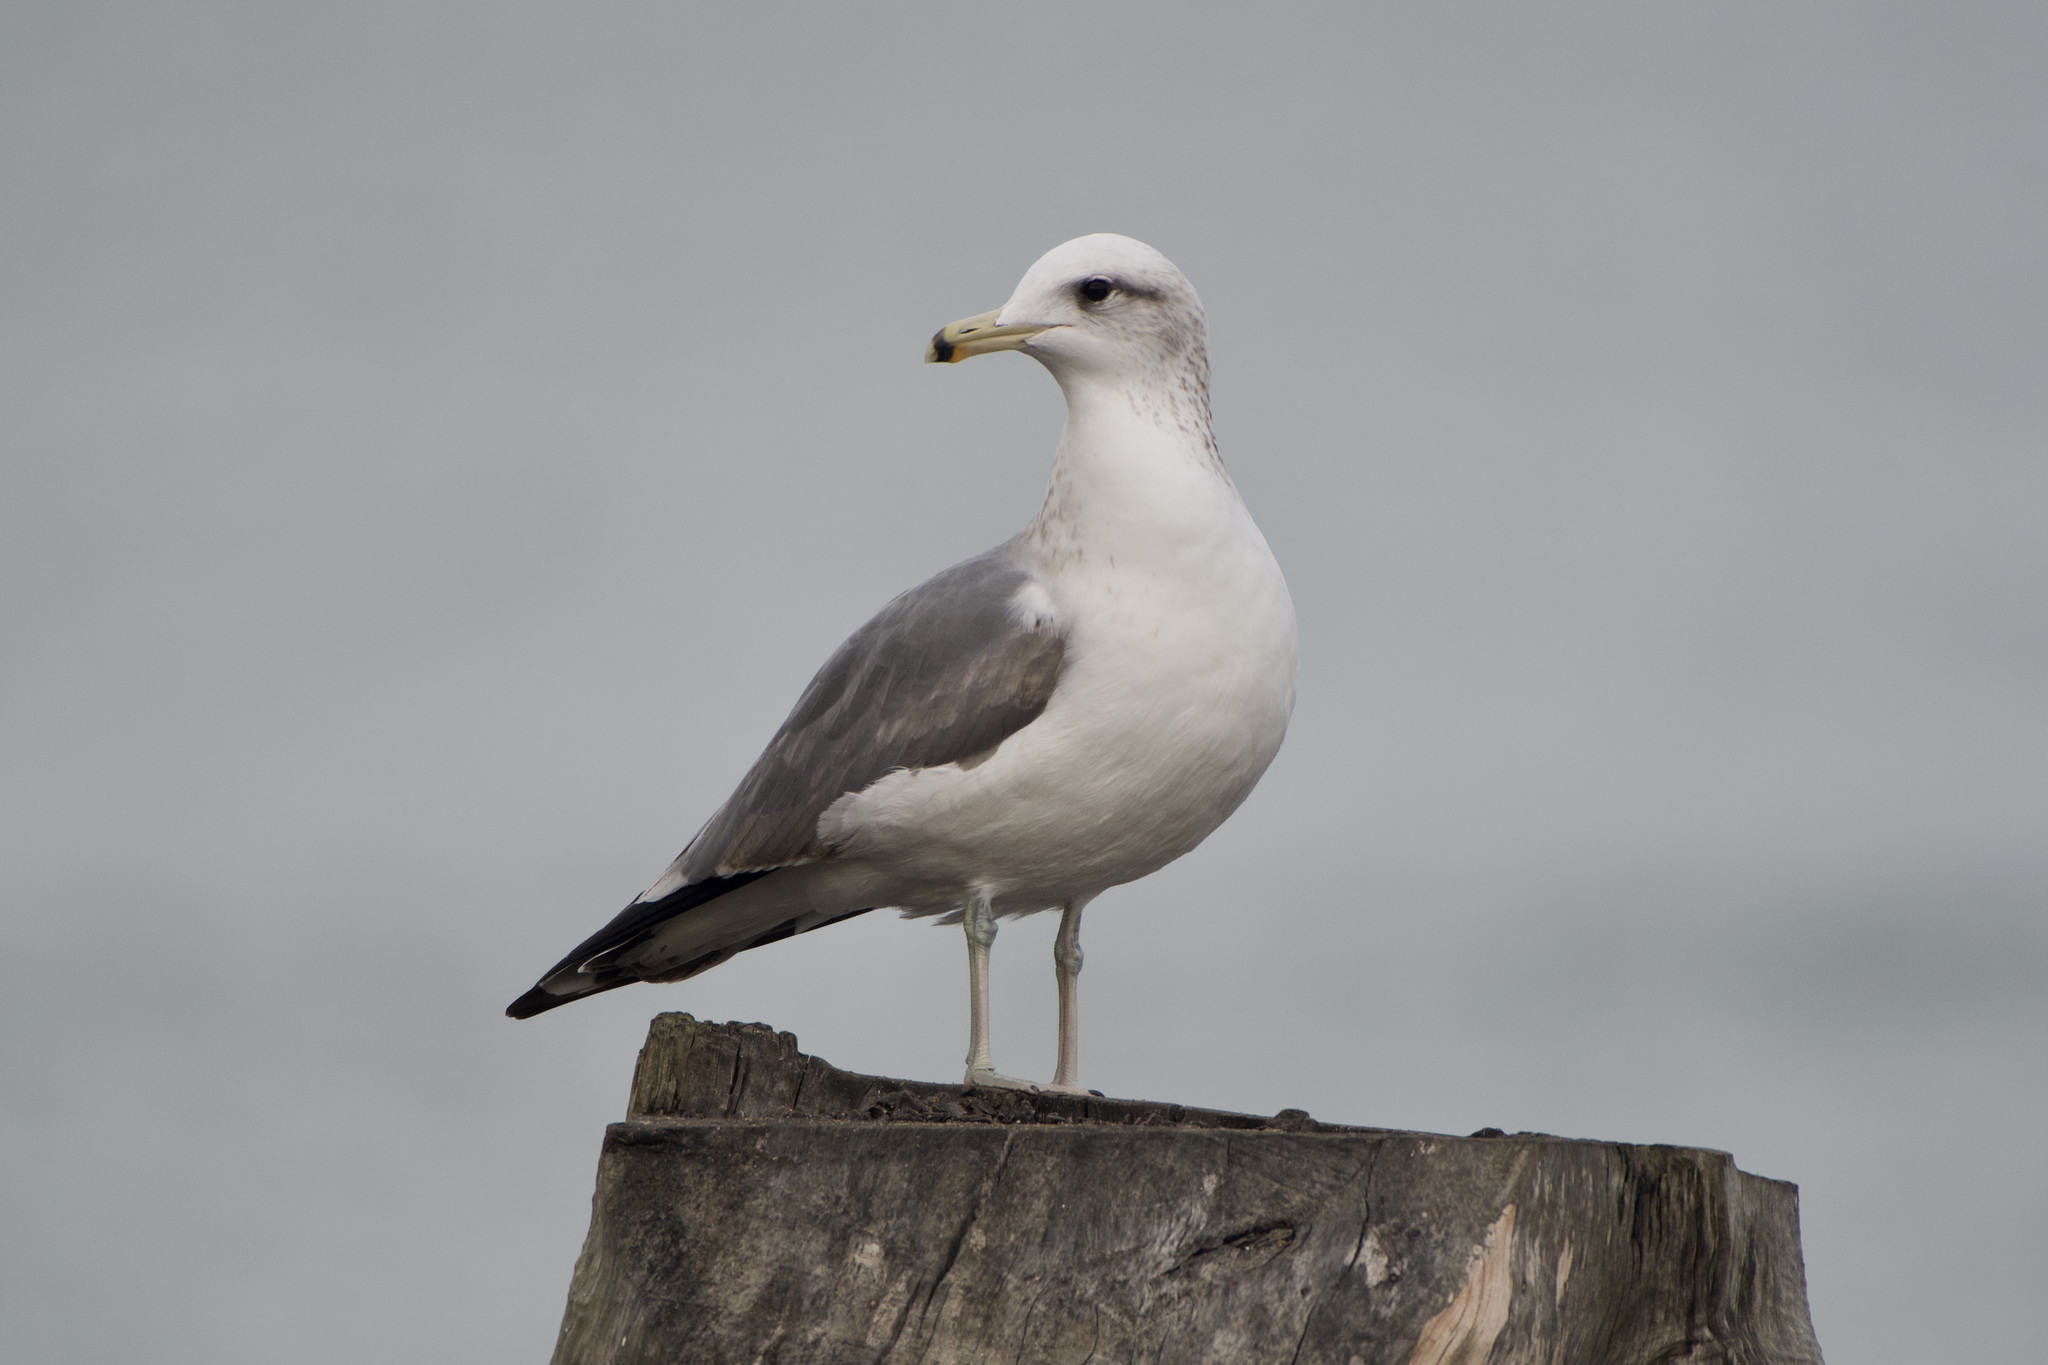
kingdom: Animalia
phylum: Chordata
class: Aves
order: Charadriiformes
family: Laridae
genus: Larus
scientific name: Larus californicus
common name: California gull
